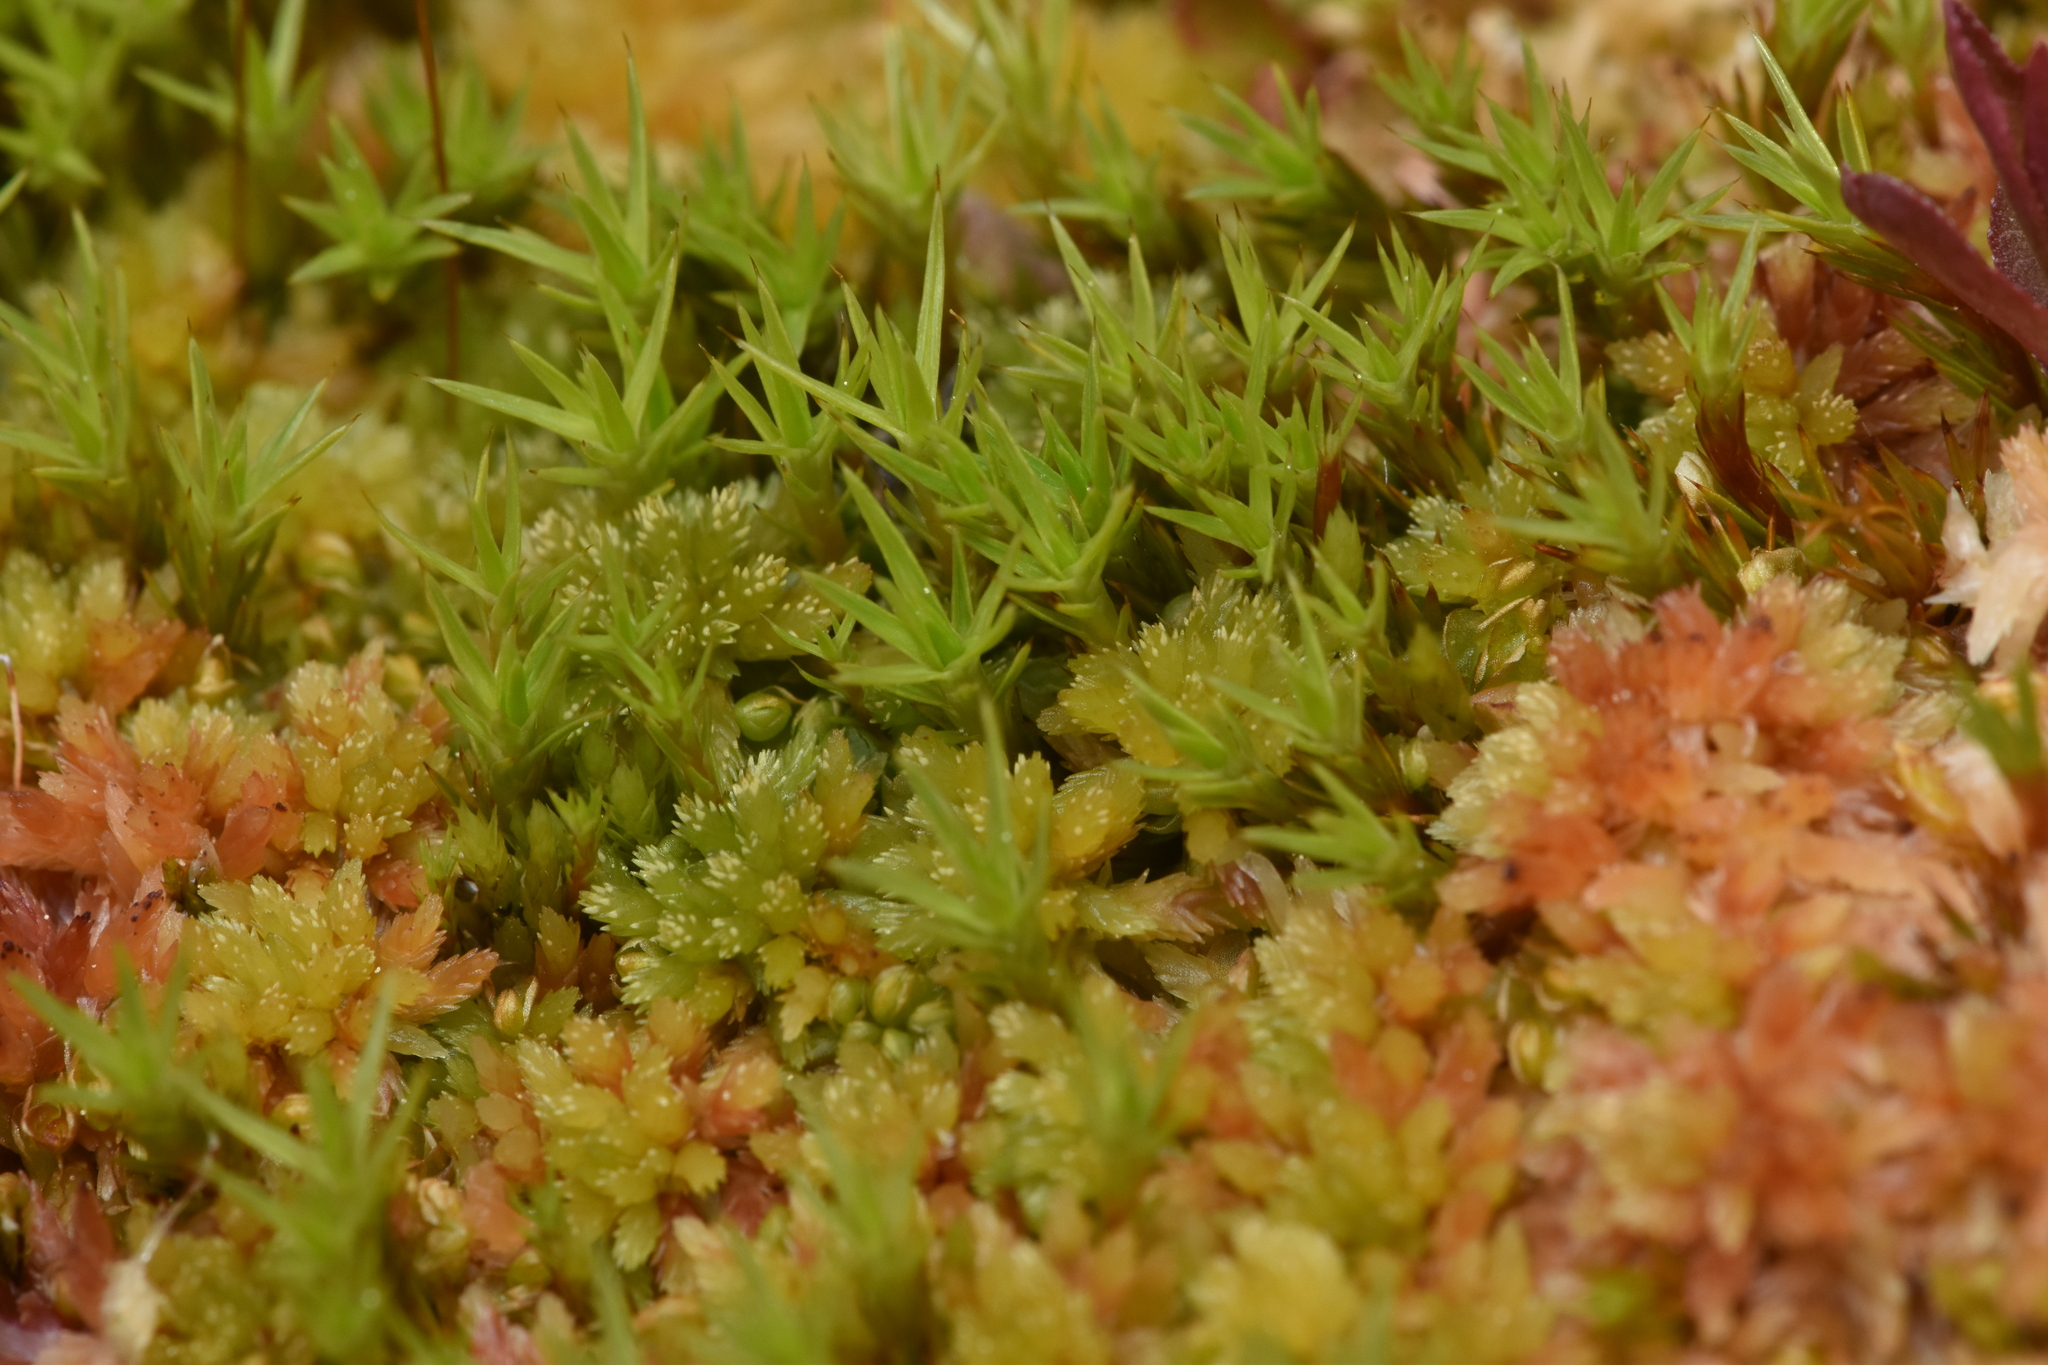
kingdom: Plantae
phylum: Bryophyta
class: Polytrichopsida
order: Polytrichales
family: Polytrichaceae
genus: Polytrichum
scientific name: Polytrichum strictum
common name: Bog haircap moss
